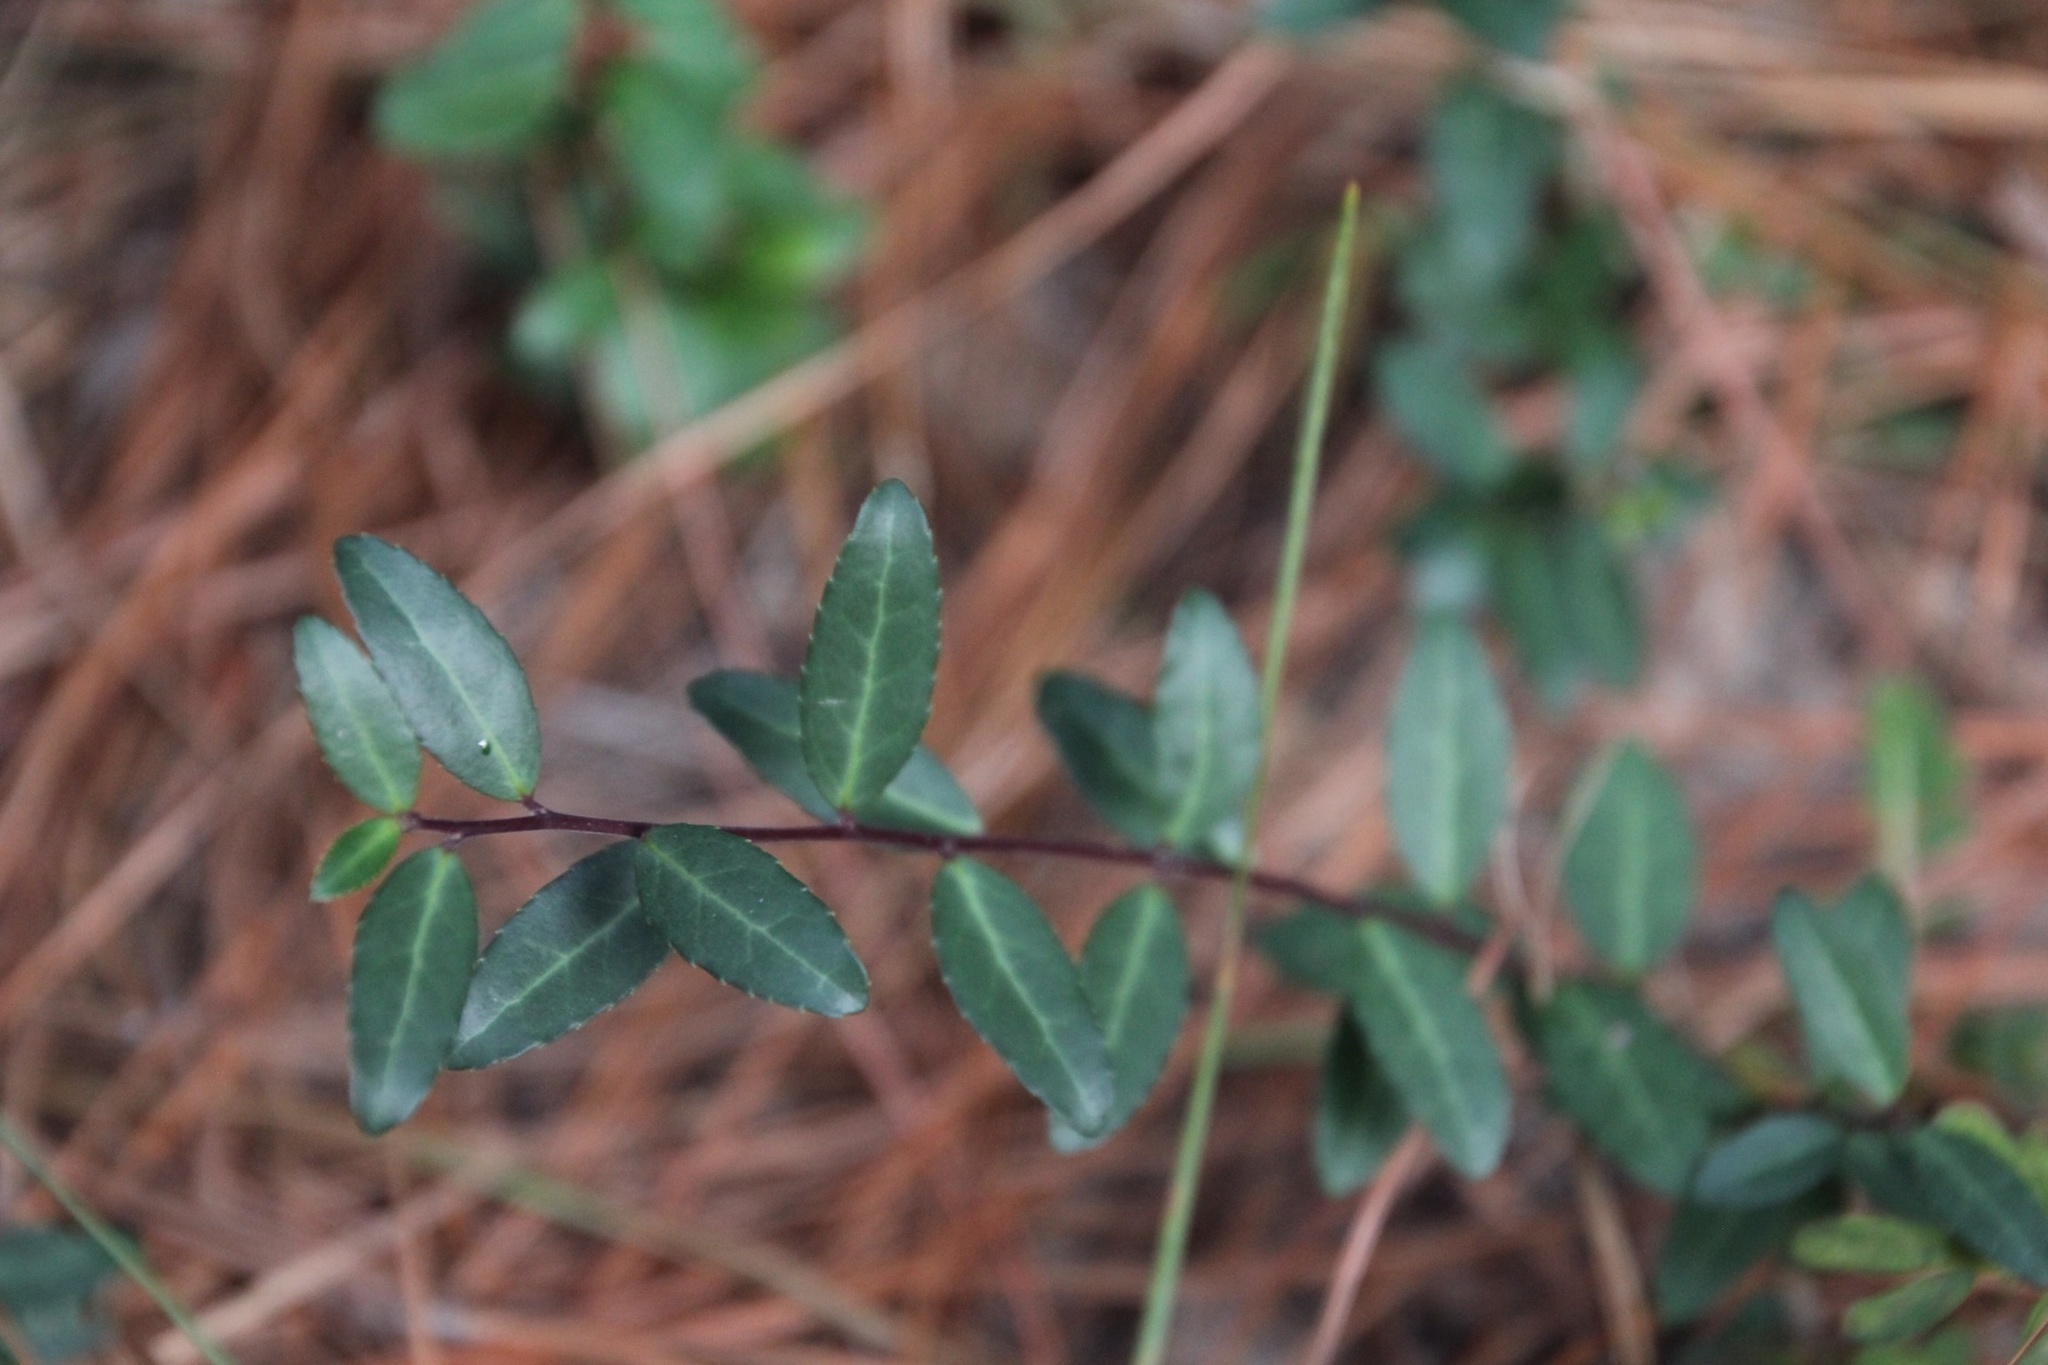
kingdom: Plantae
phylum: Tracheophyta
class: Magnoliopsida
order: Aquifoliales
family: Aquifoliaceae
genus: Ilex
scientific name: Ilex vomitoria
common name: Yaupon holly
